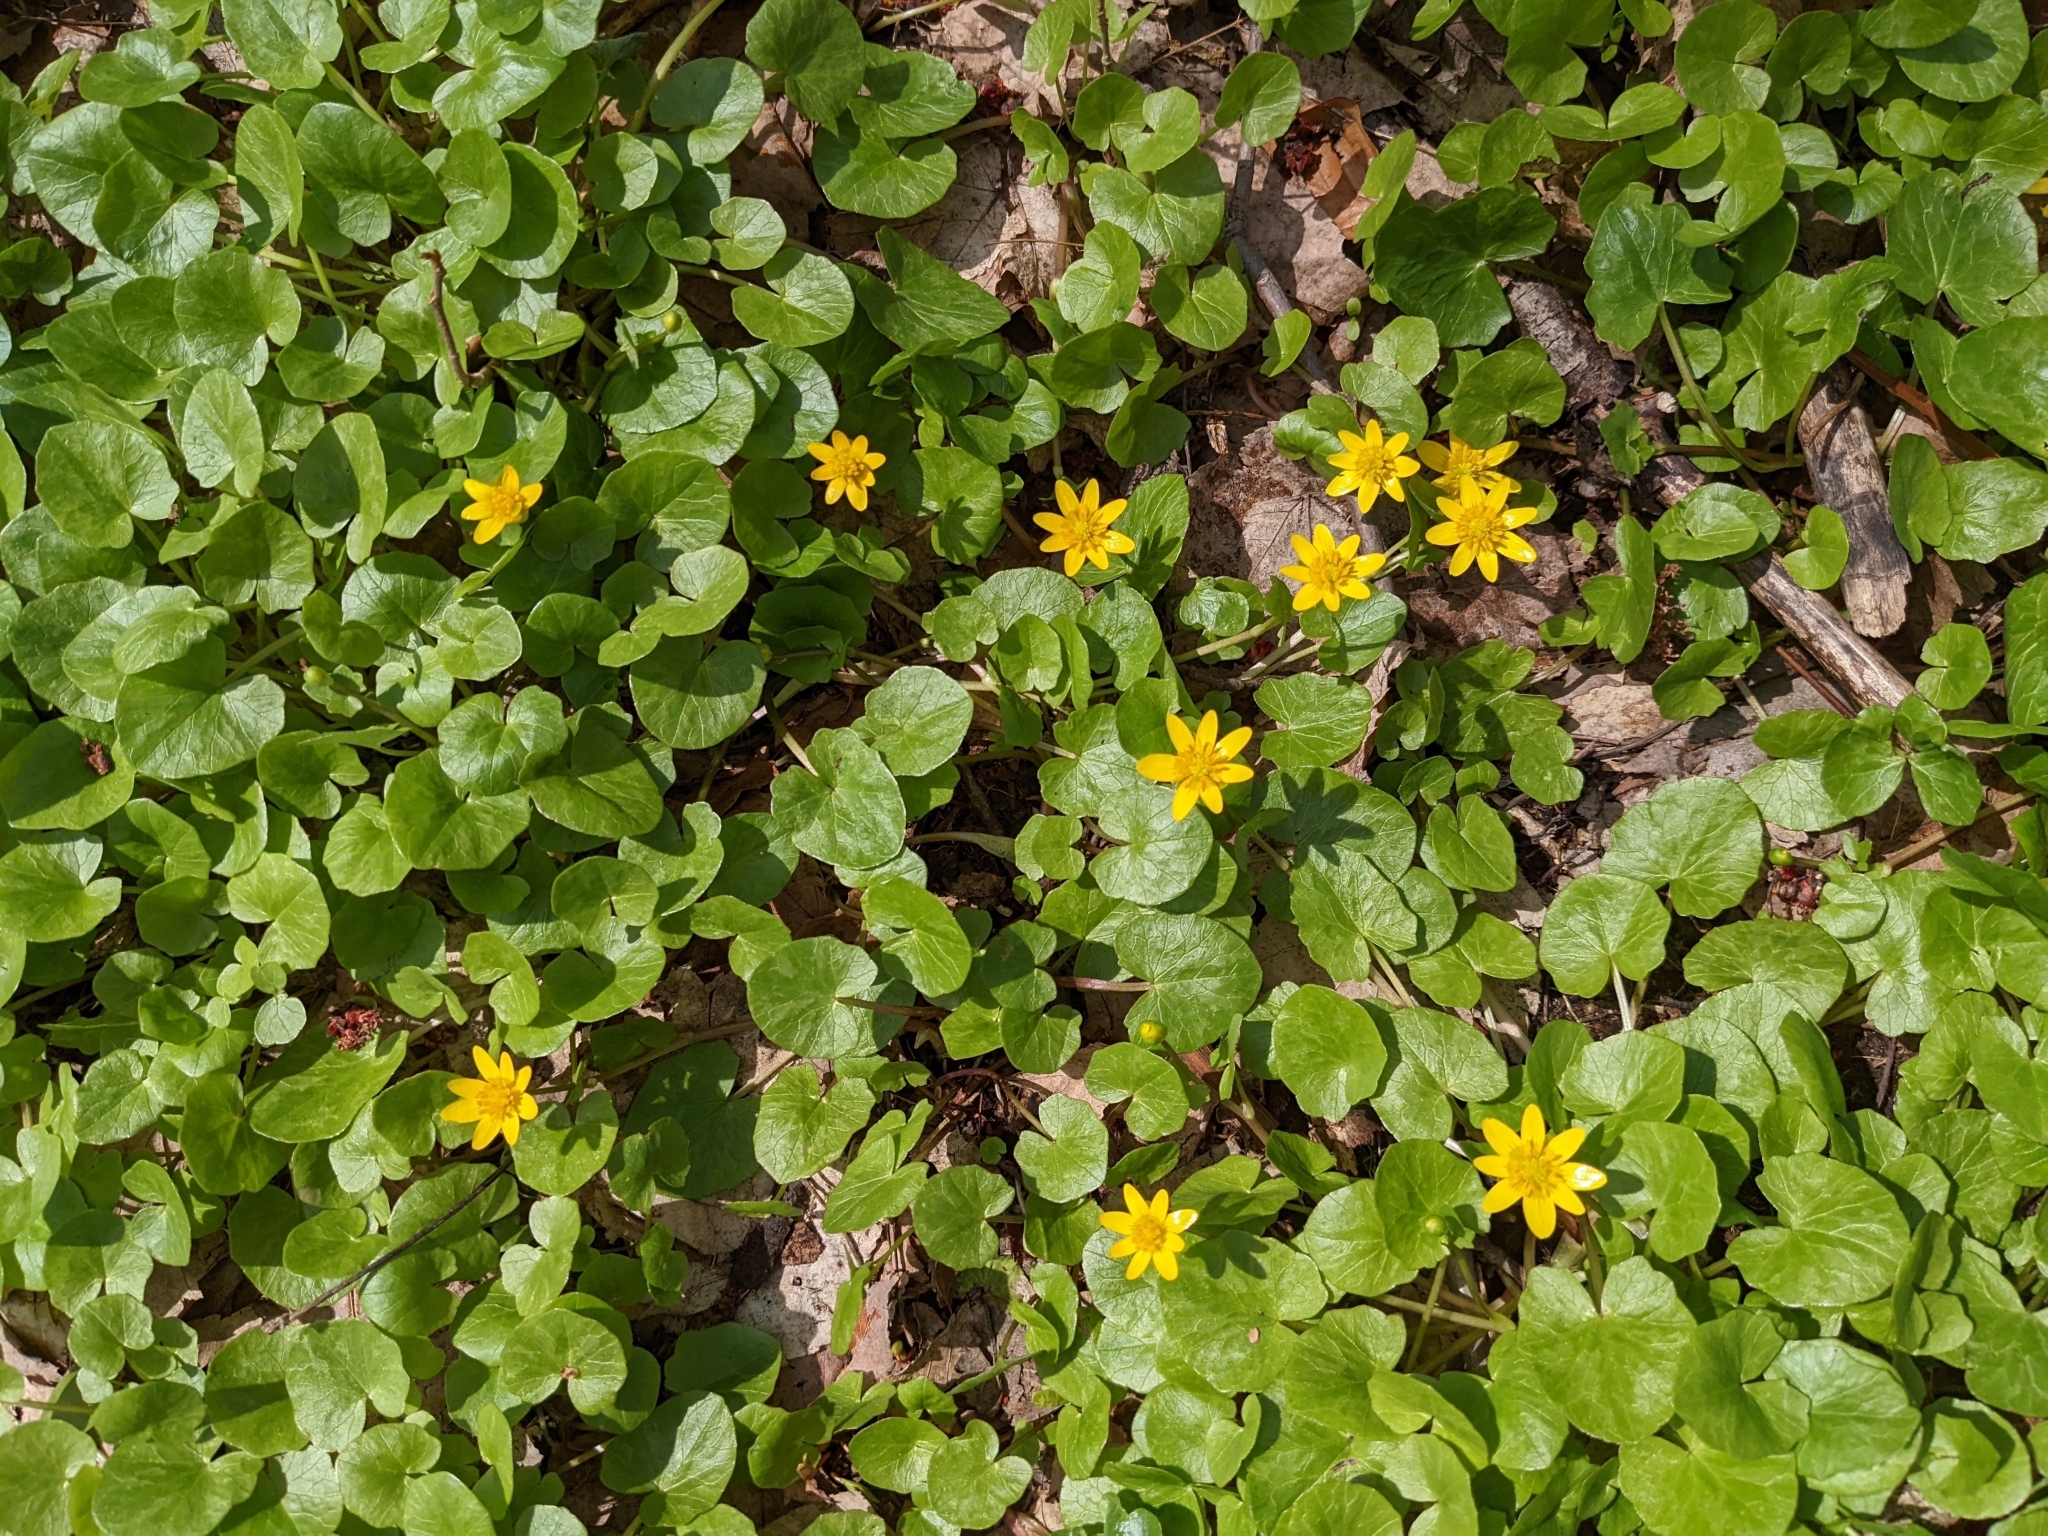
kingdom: Plantae
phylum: Tracheophyta
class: Magnoliopsida
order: Ranunculales
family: Ranunculaceae
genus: Ficaria
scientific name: Ficaria verna
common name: Lesser celandine
